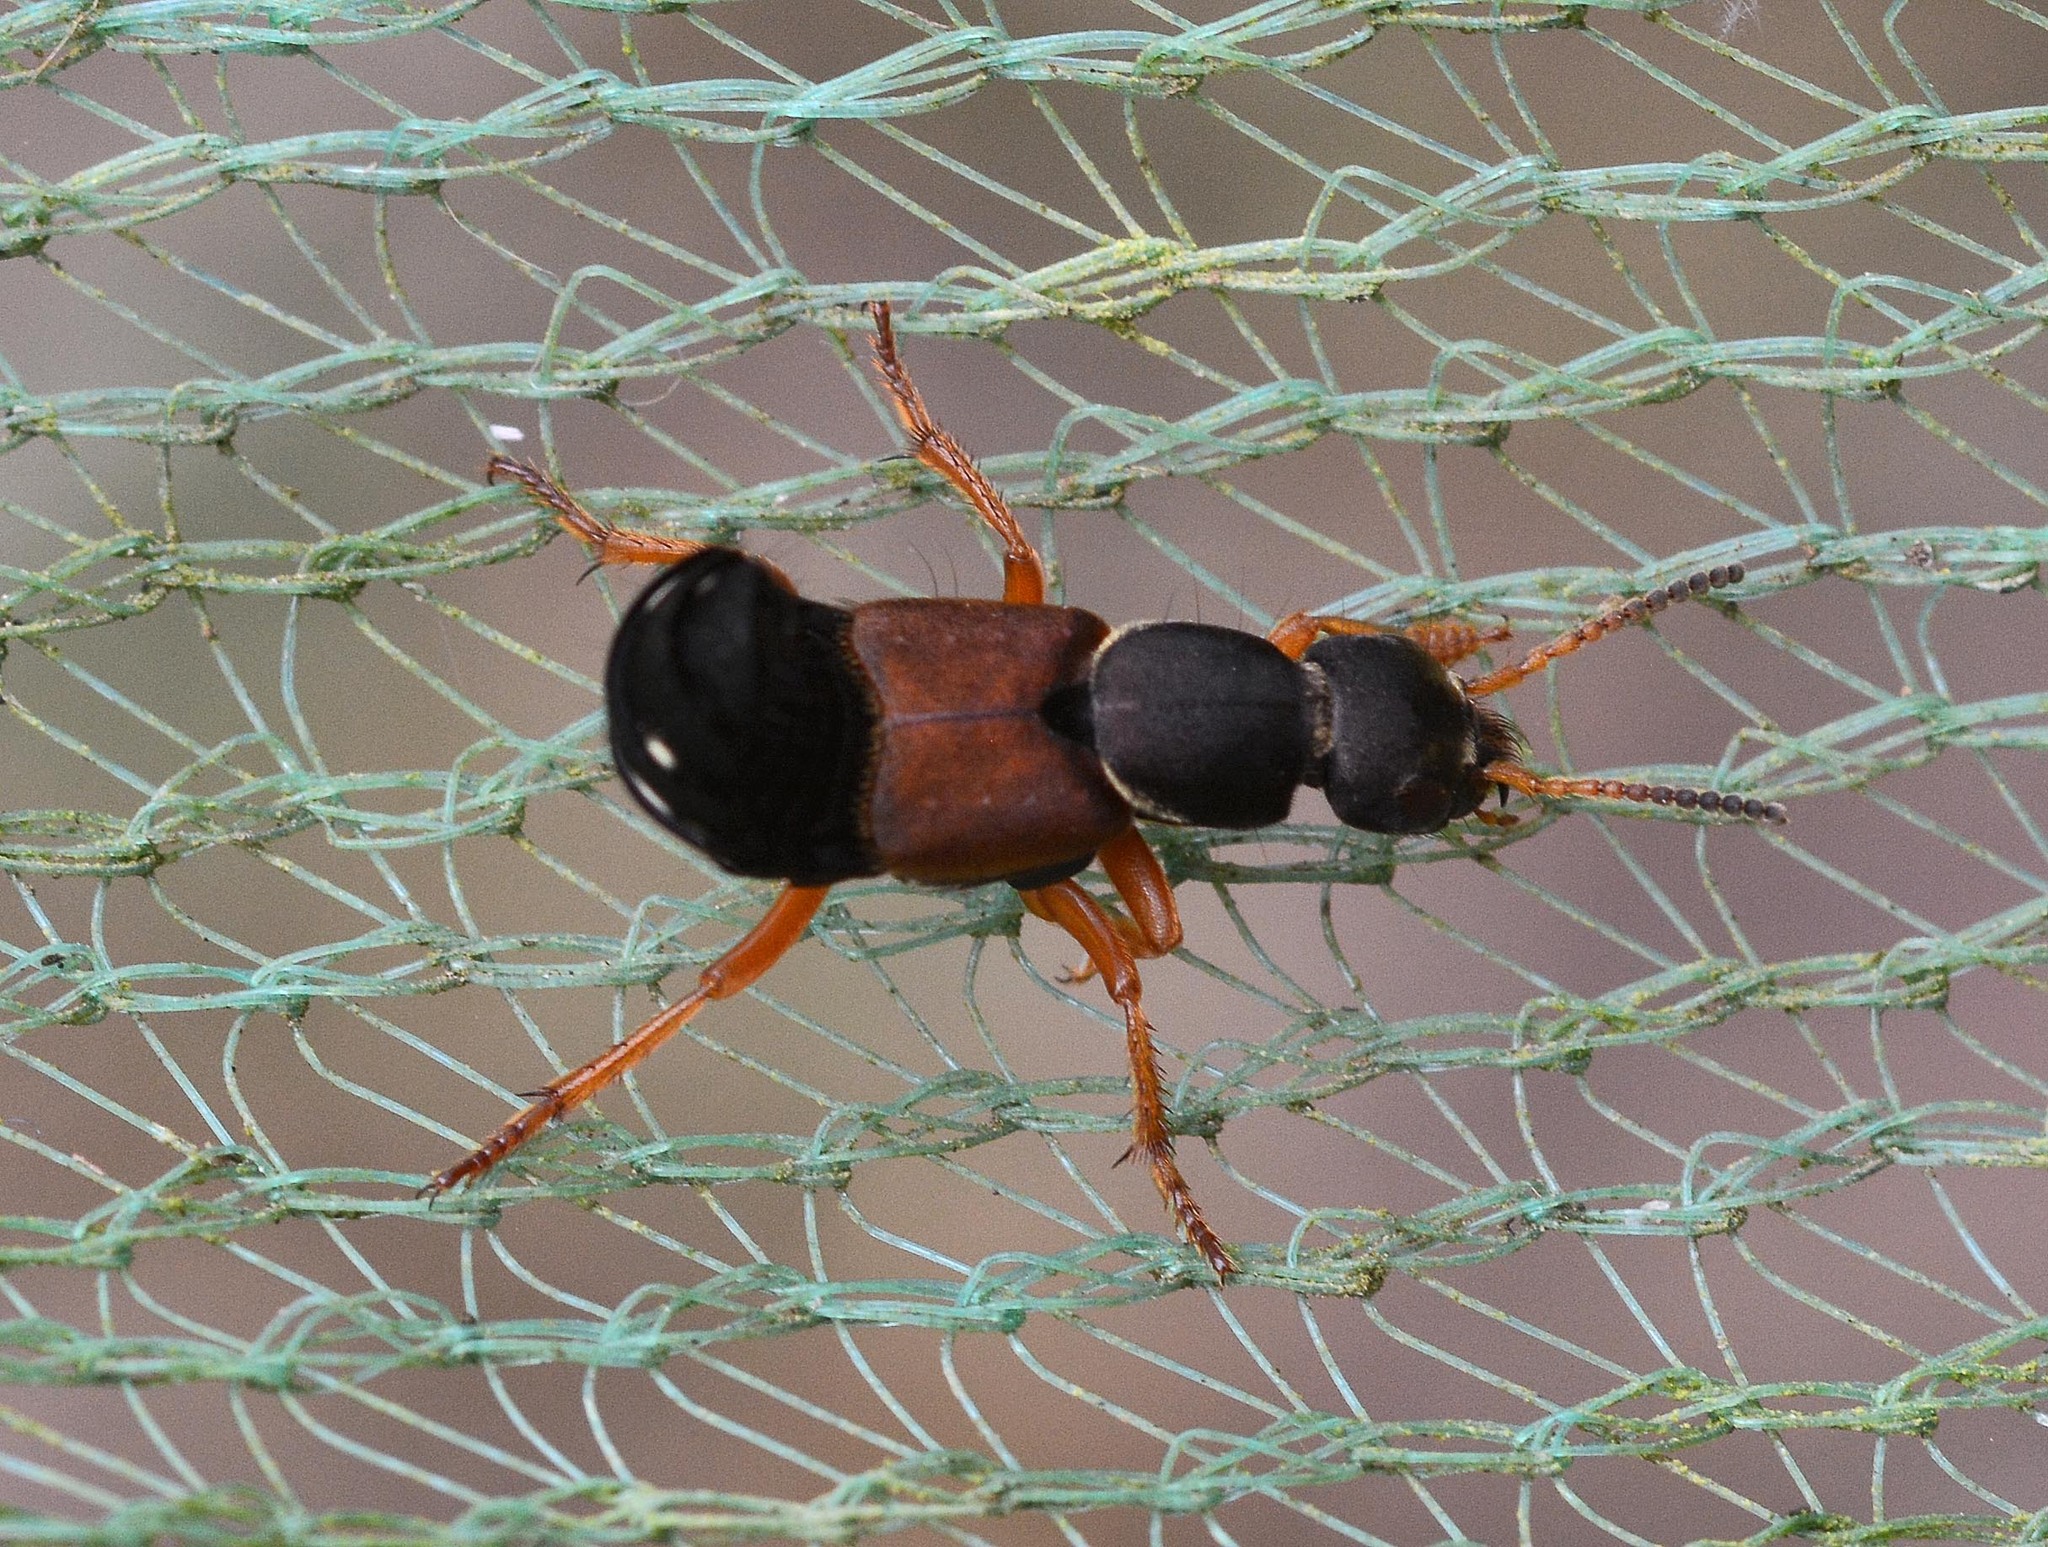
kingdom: Animalia
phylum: Arthropoda
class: Insecta
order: Coleoptera
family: Staphylinidae
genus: Staphylinus
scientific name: Staphylinus dimidiaticornis
